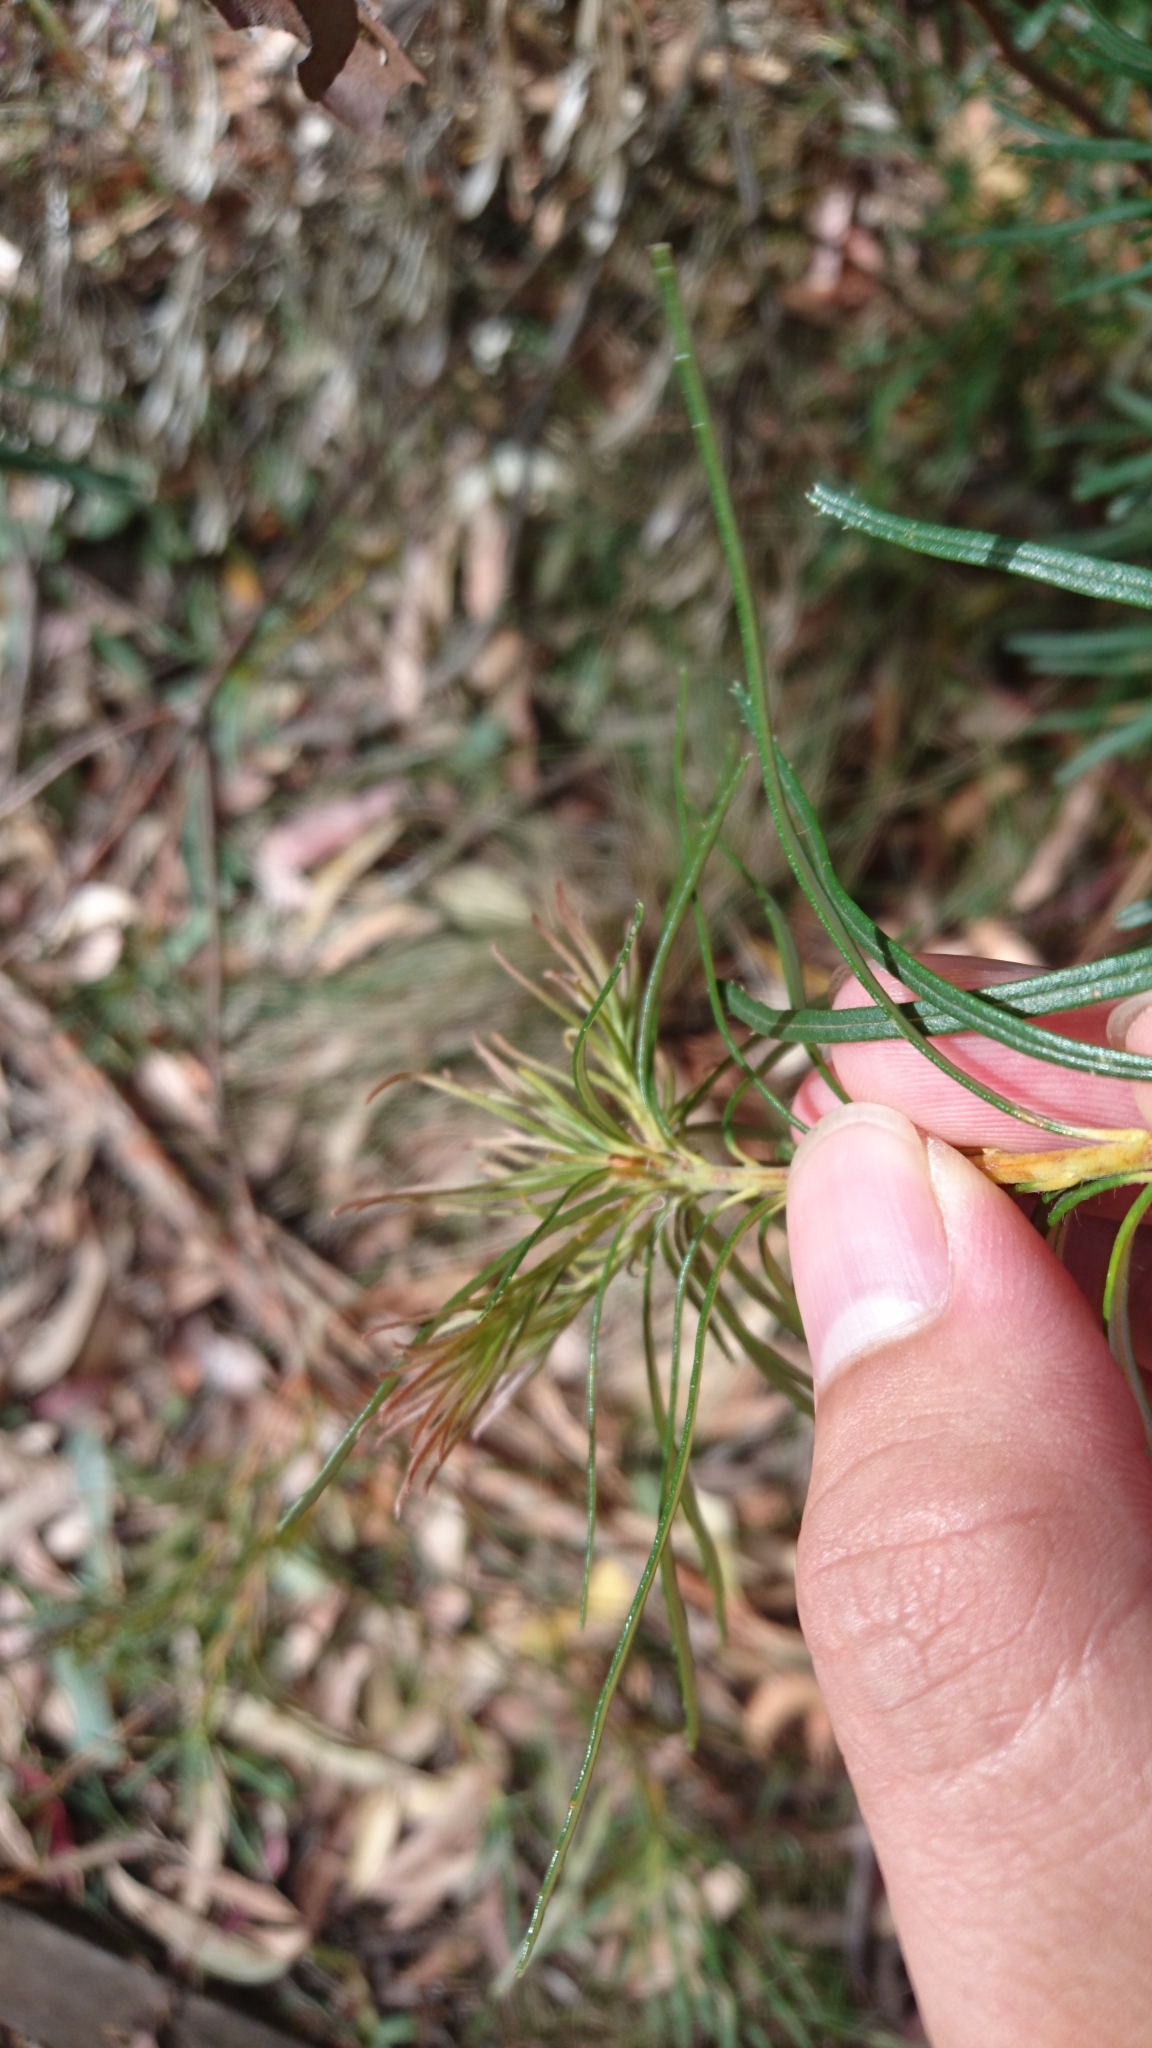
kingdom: Plantae
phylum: Tracheophyta
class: Magnoliopsida
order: Proteales
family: Proteaceae
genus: Banksia
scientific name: Banksia spinulosa
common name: Hairpin banksia
